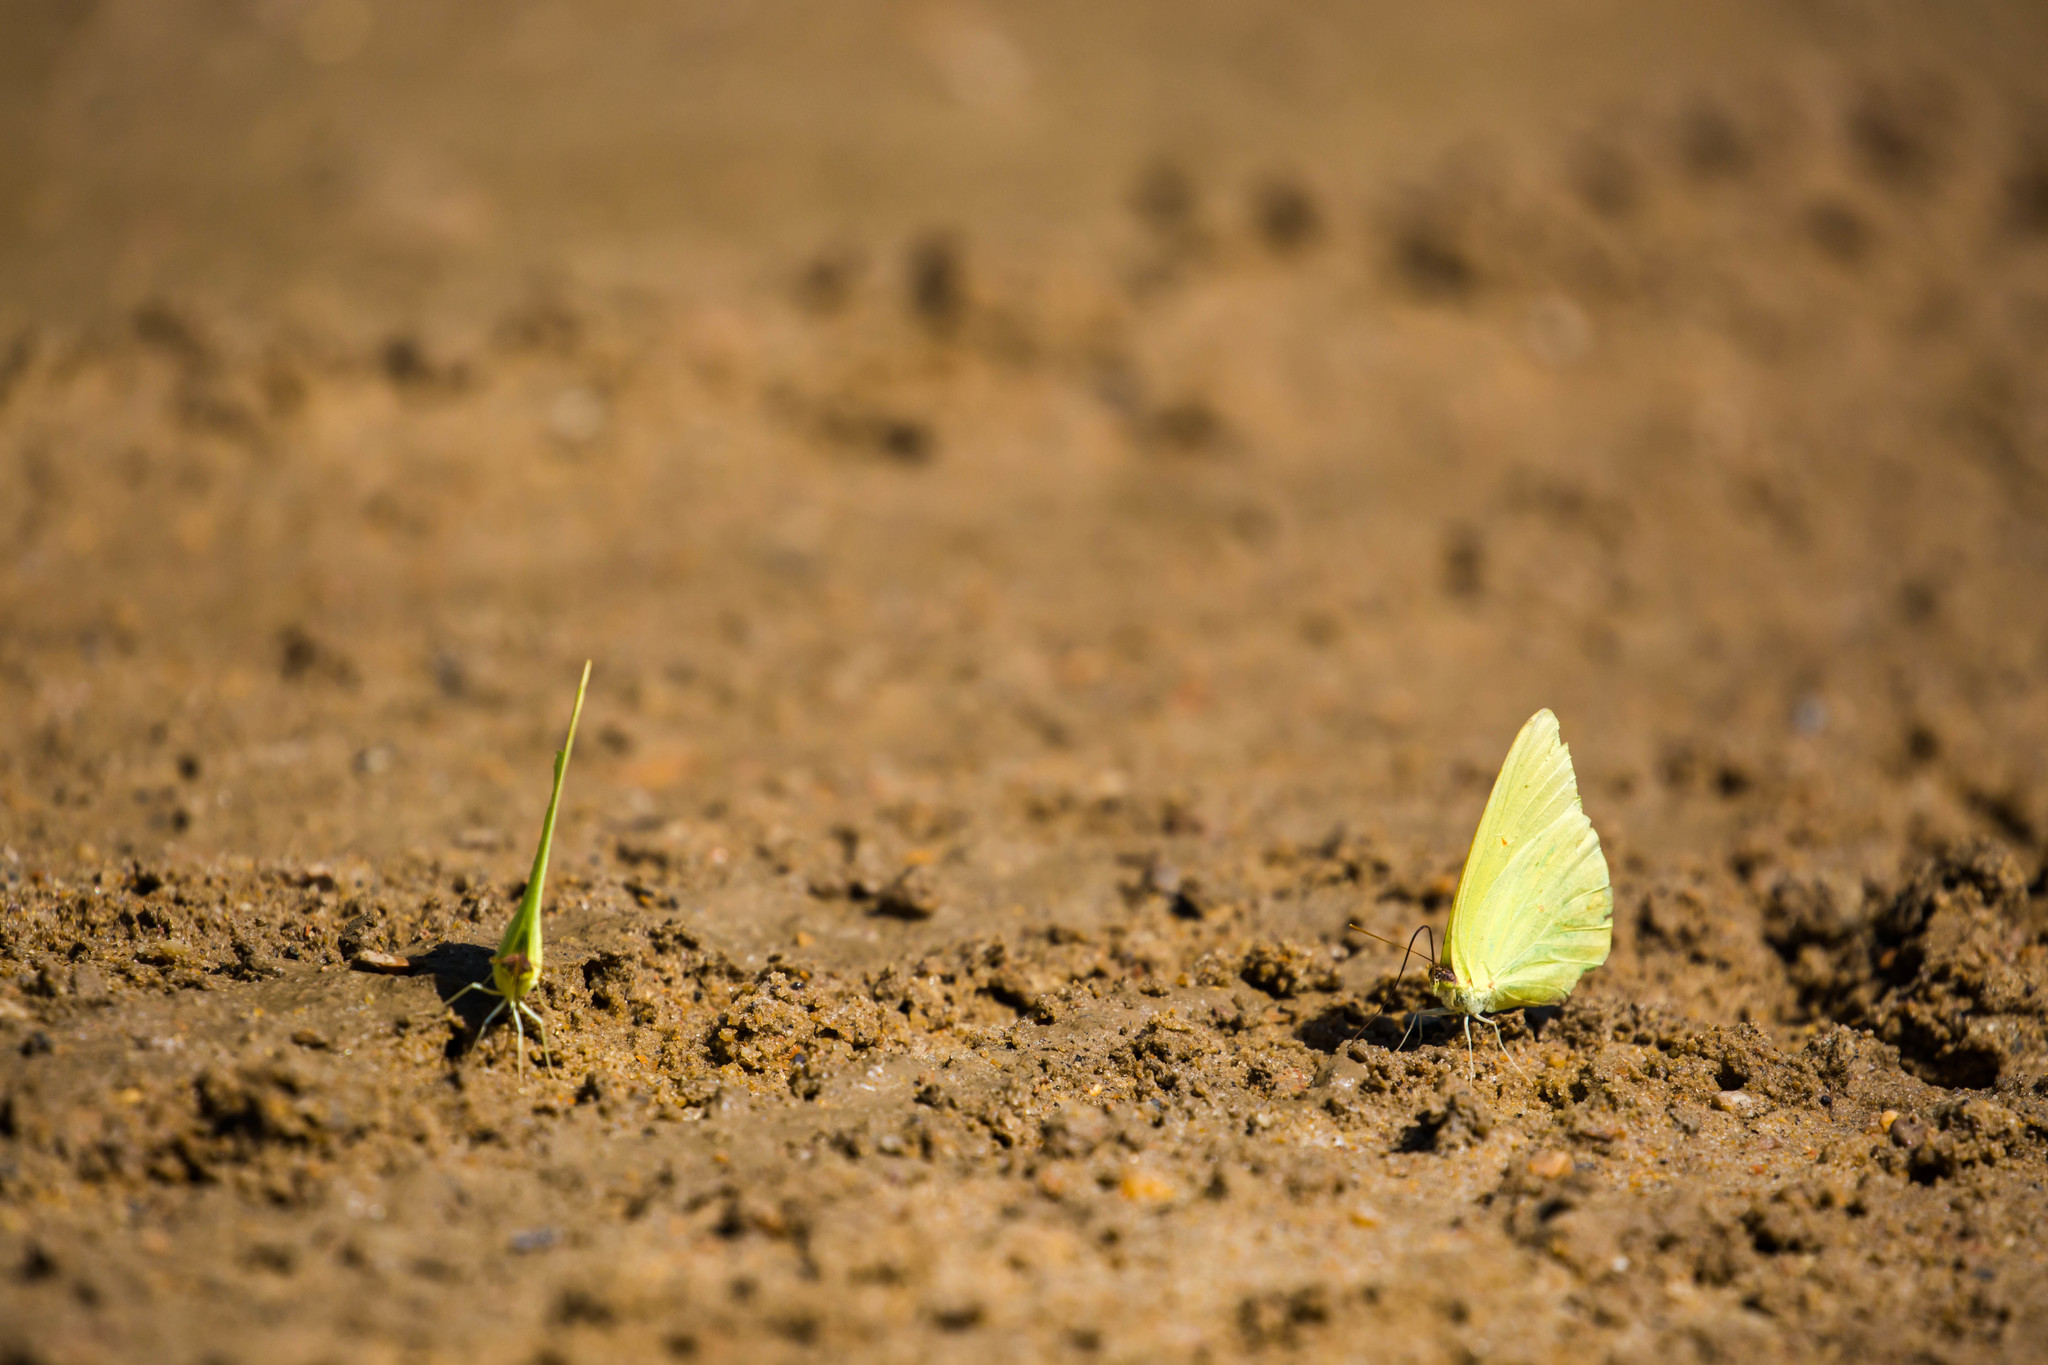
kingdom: Animalia
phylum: Arthropoda
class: Insecta
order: Lepidoptera
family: Pieridae
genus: Phoebis
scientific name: Phoebis sennae
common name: Cloudless sulphur
